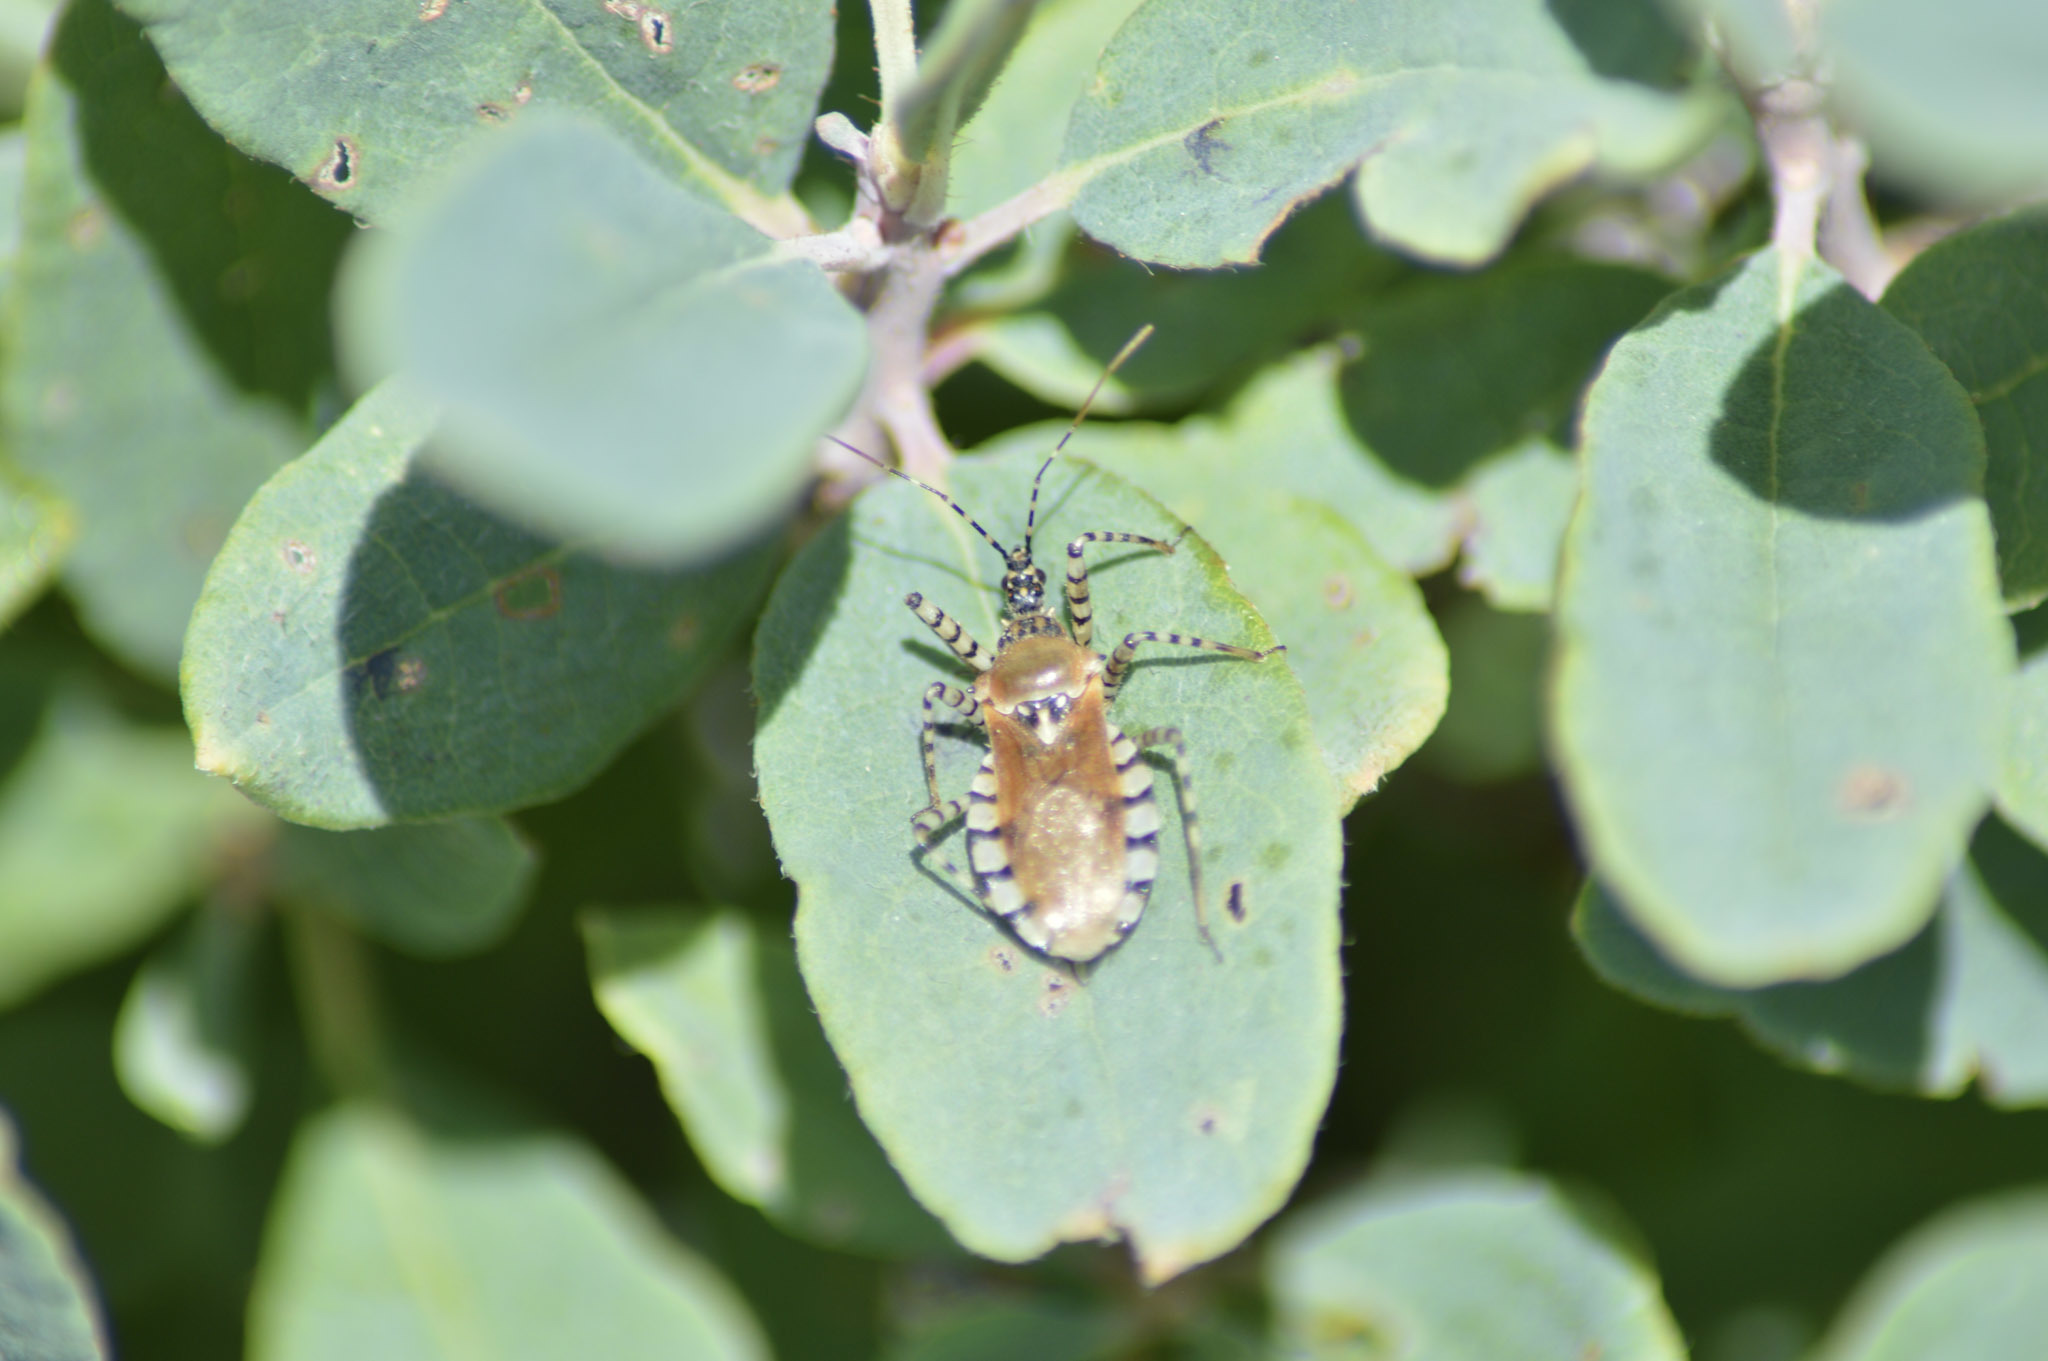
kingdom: Animalia
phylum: Arthropoda
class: Insecta
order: Hemiptera
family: Reduviidae
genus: Pselliopus
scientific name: Pselliopus cinctus
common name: Ringed assassin bug
